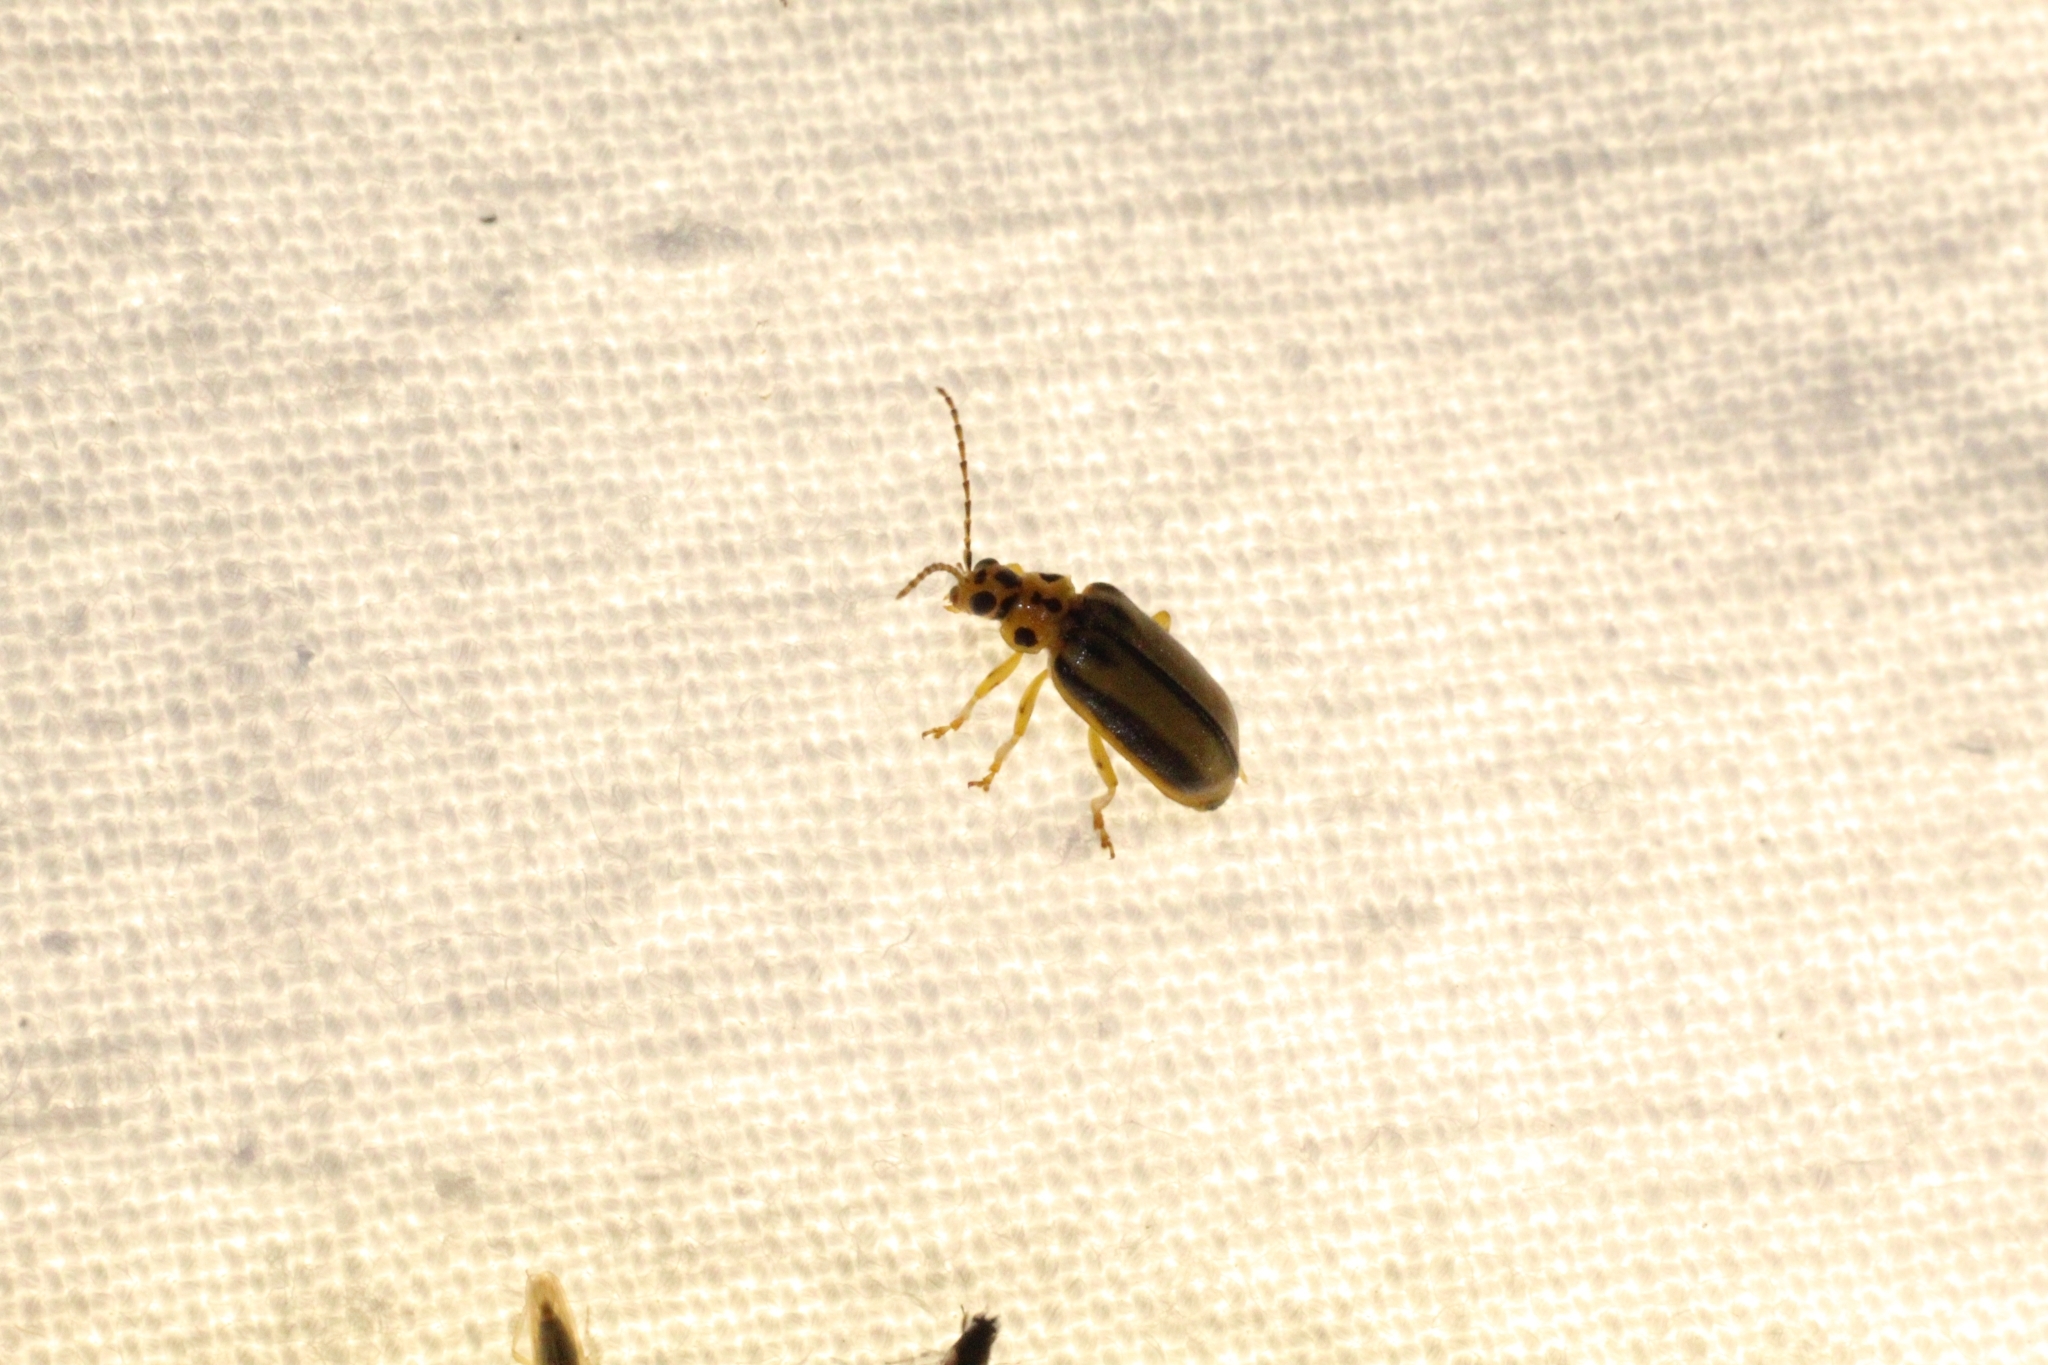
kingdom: Animalia
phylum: Arthropoda
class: Insecta
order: Coleoptera
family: Chrysomelidae
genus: Xanthogaleruca
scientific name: Xanthogaleruca luteola
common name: Elm leaf beetle
